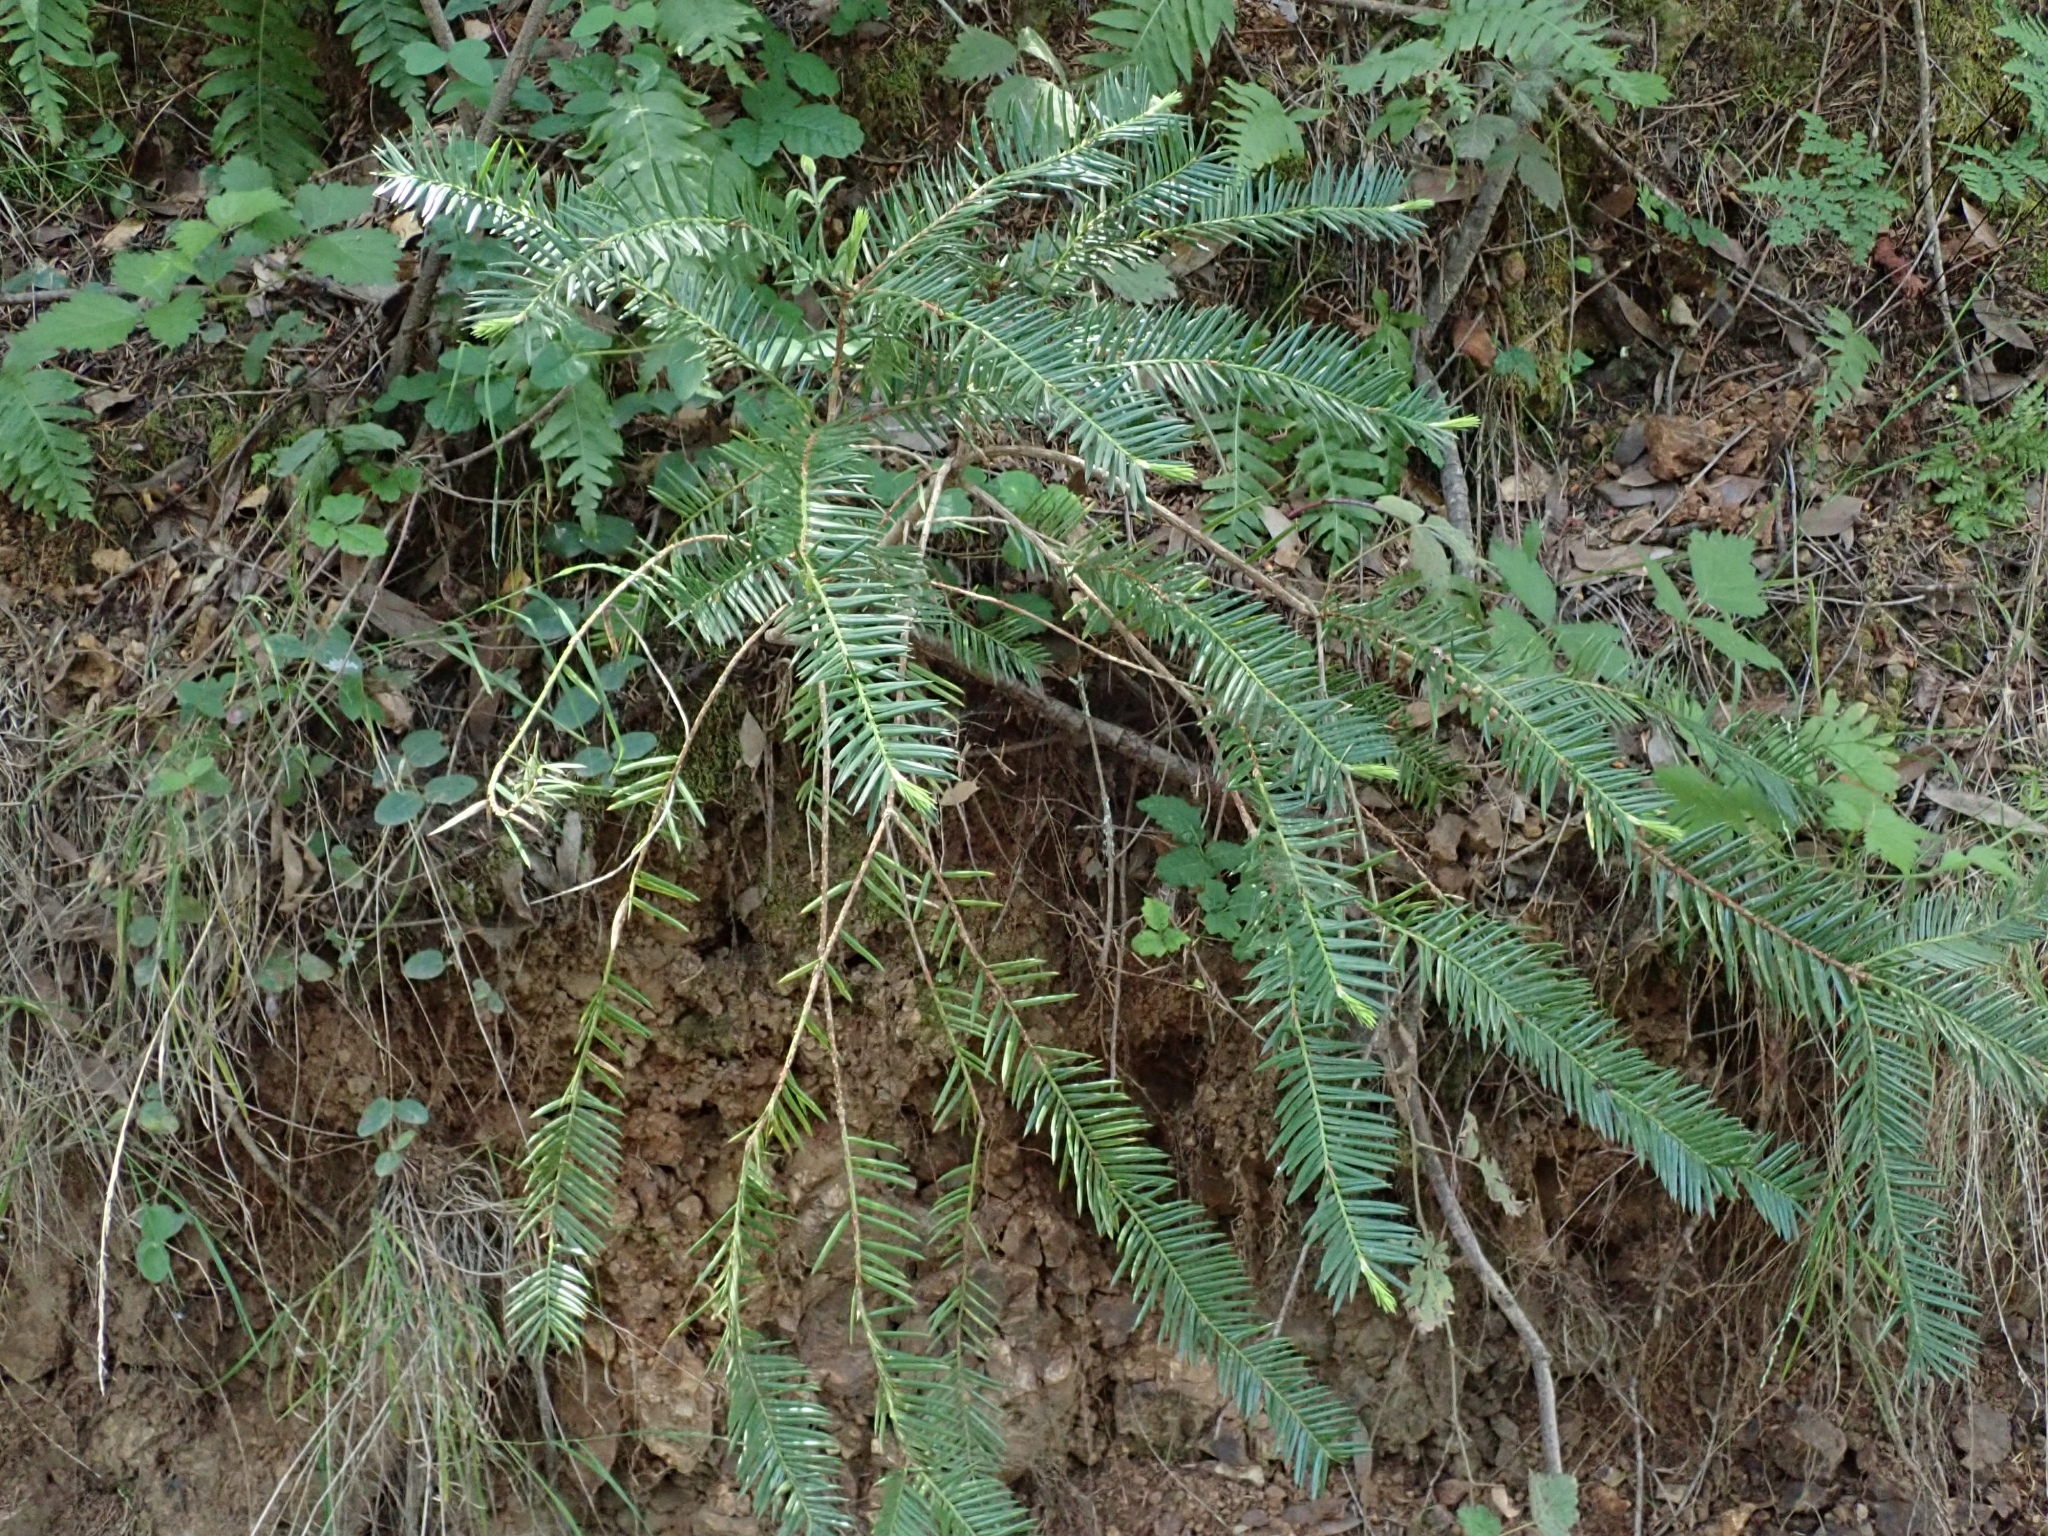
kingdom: Plantae
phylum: Tracheophyta
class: Pinopsida
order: Pinales
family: Taxaceae
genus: Torreya
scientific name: Torreya californica
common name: California torreya
